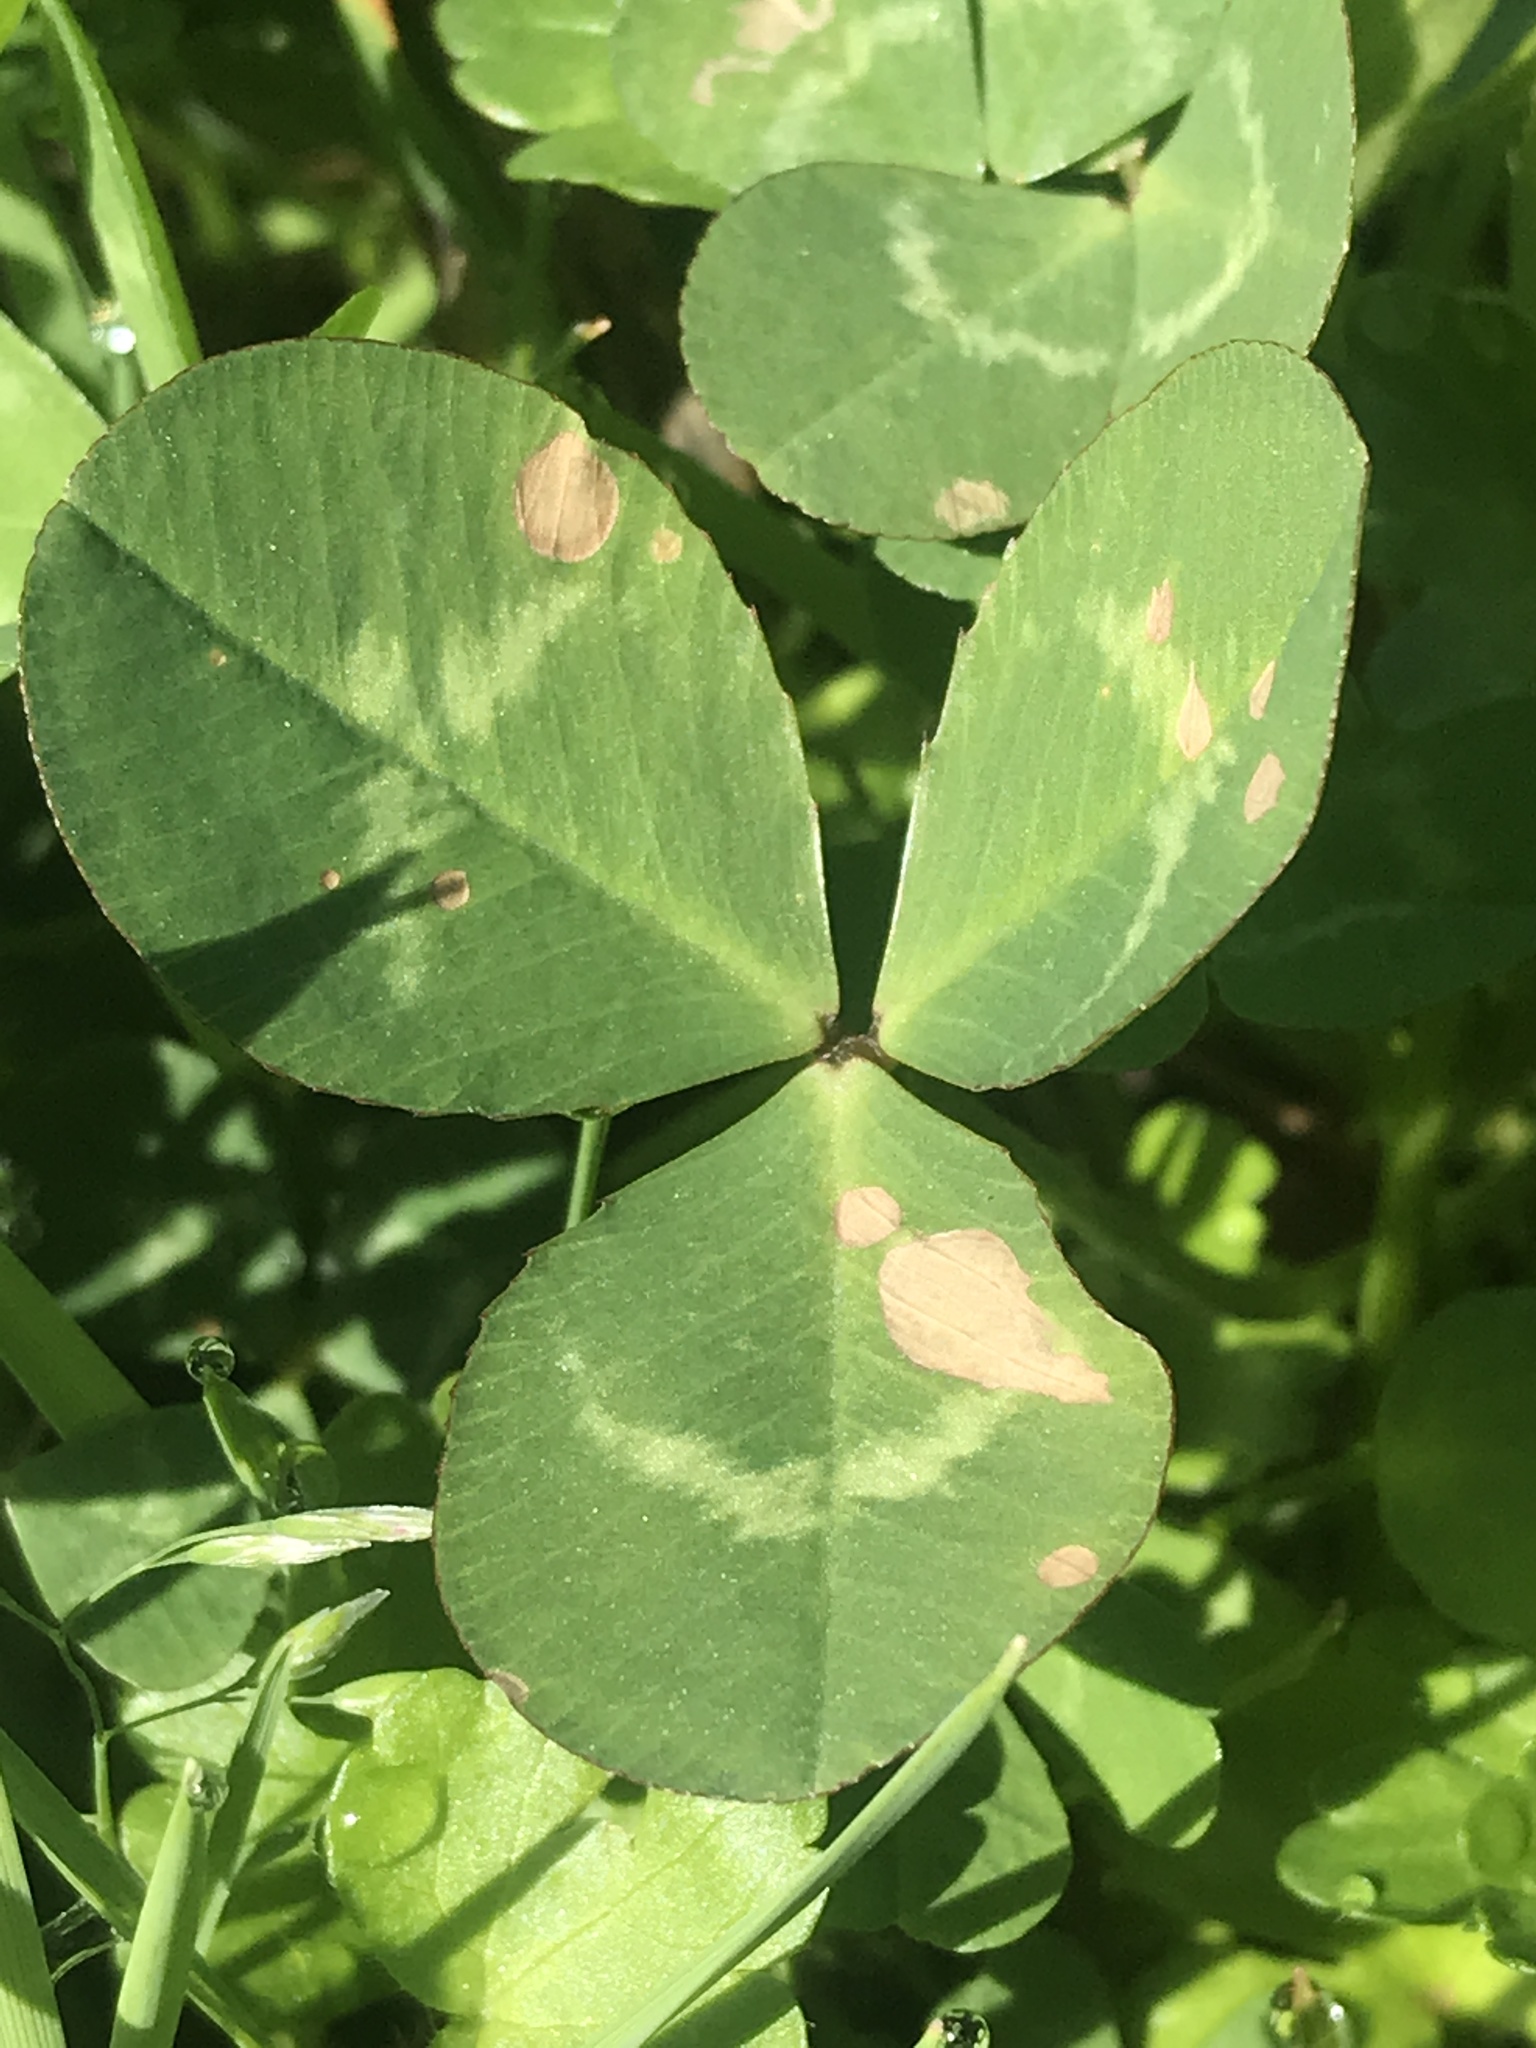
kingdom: Plantae
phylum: Tracheophyta
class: Magnoliopsida
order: Fabales
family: Fabaceae
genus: Trifolium
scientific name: Trifolium repens
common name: White clover
